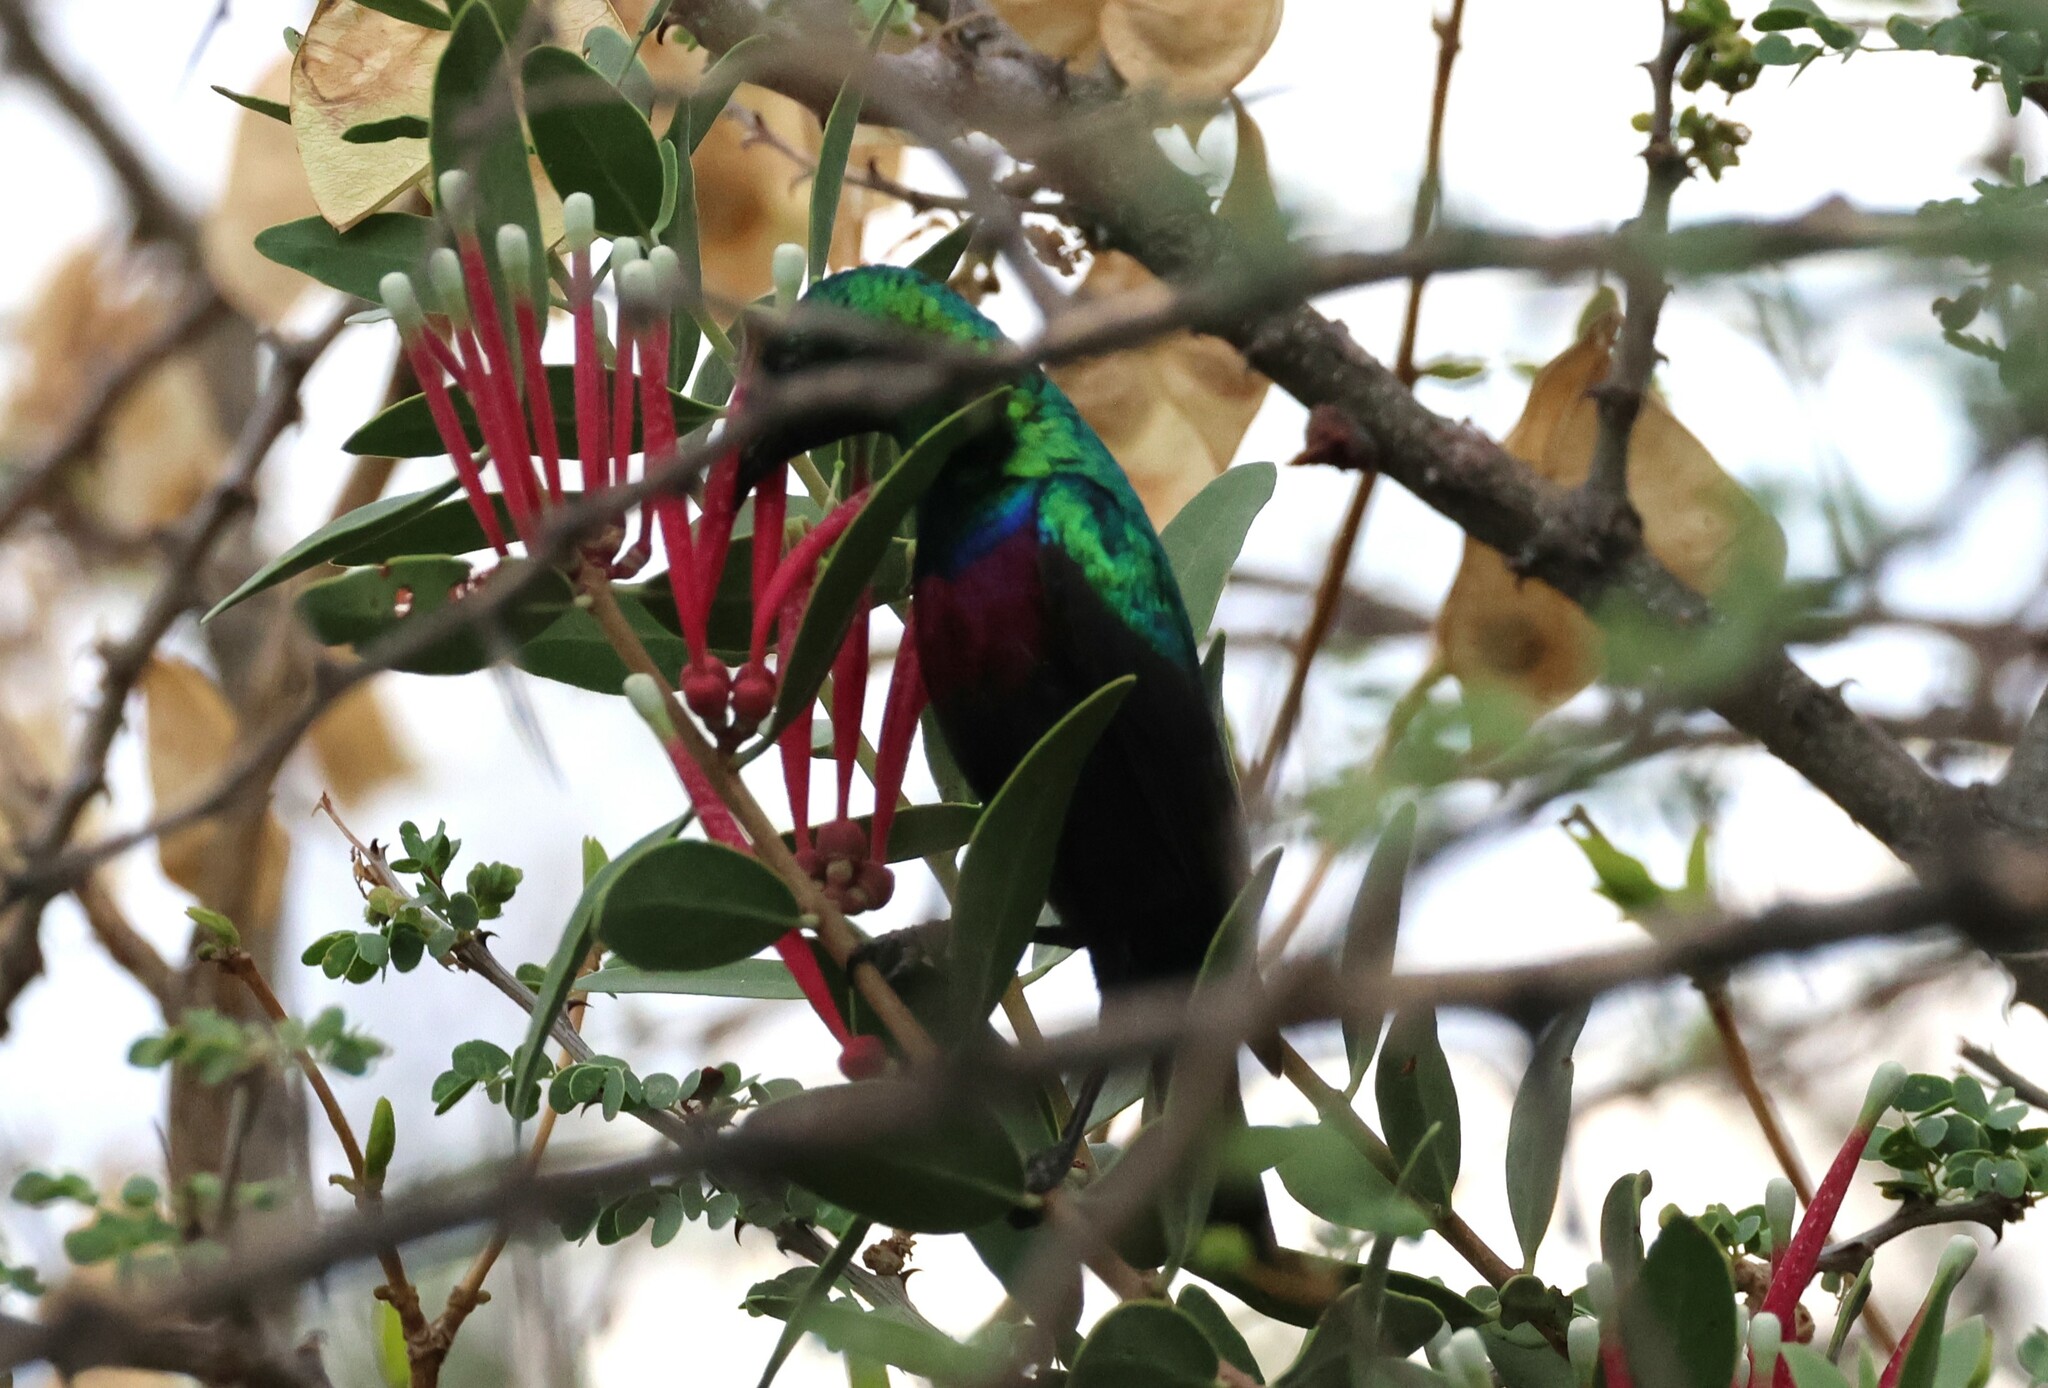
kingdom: Animalia
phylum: Chordata
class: Aves
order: Passeriformes
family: Nectariniidae
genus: Cinnyris
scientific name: Cinnyris mariquensis
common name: Marico sunbird
